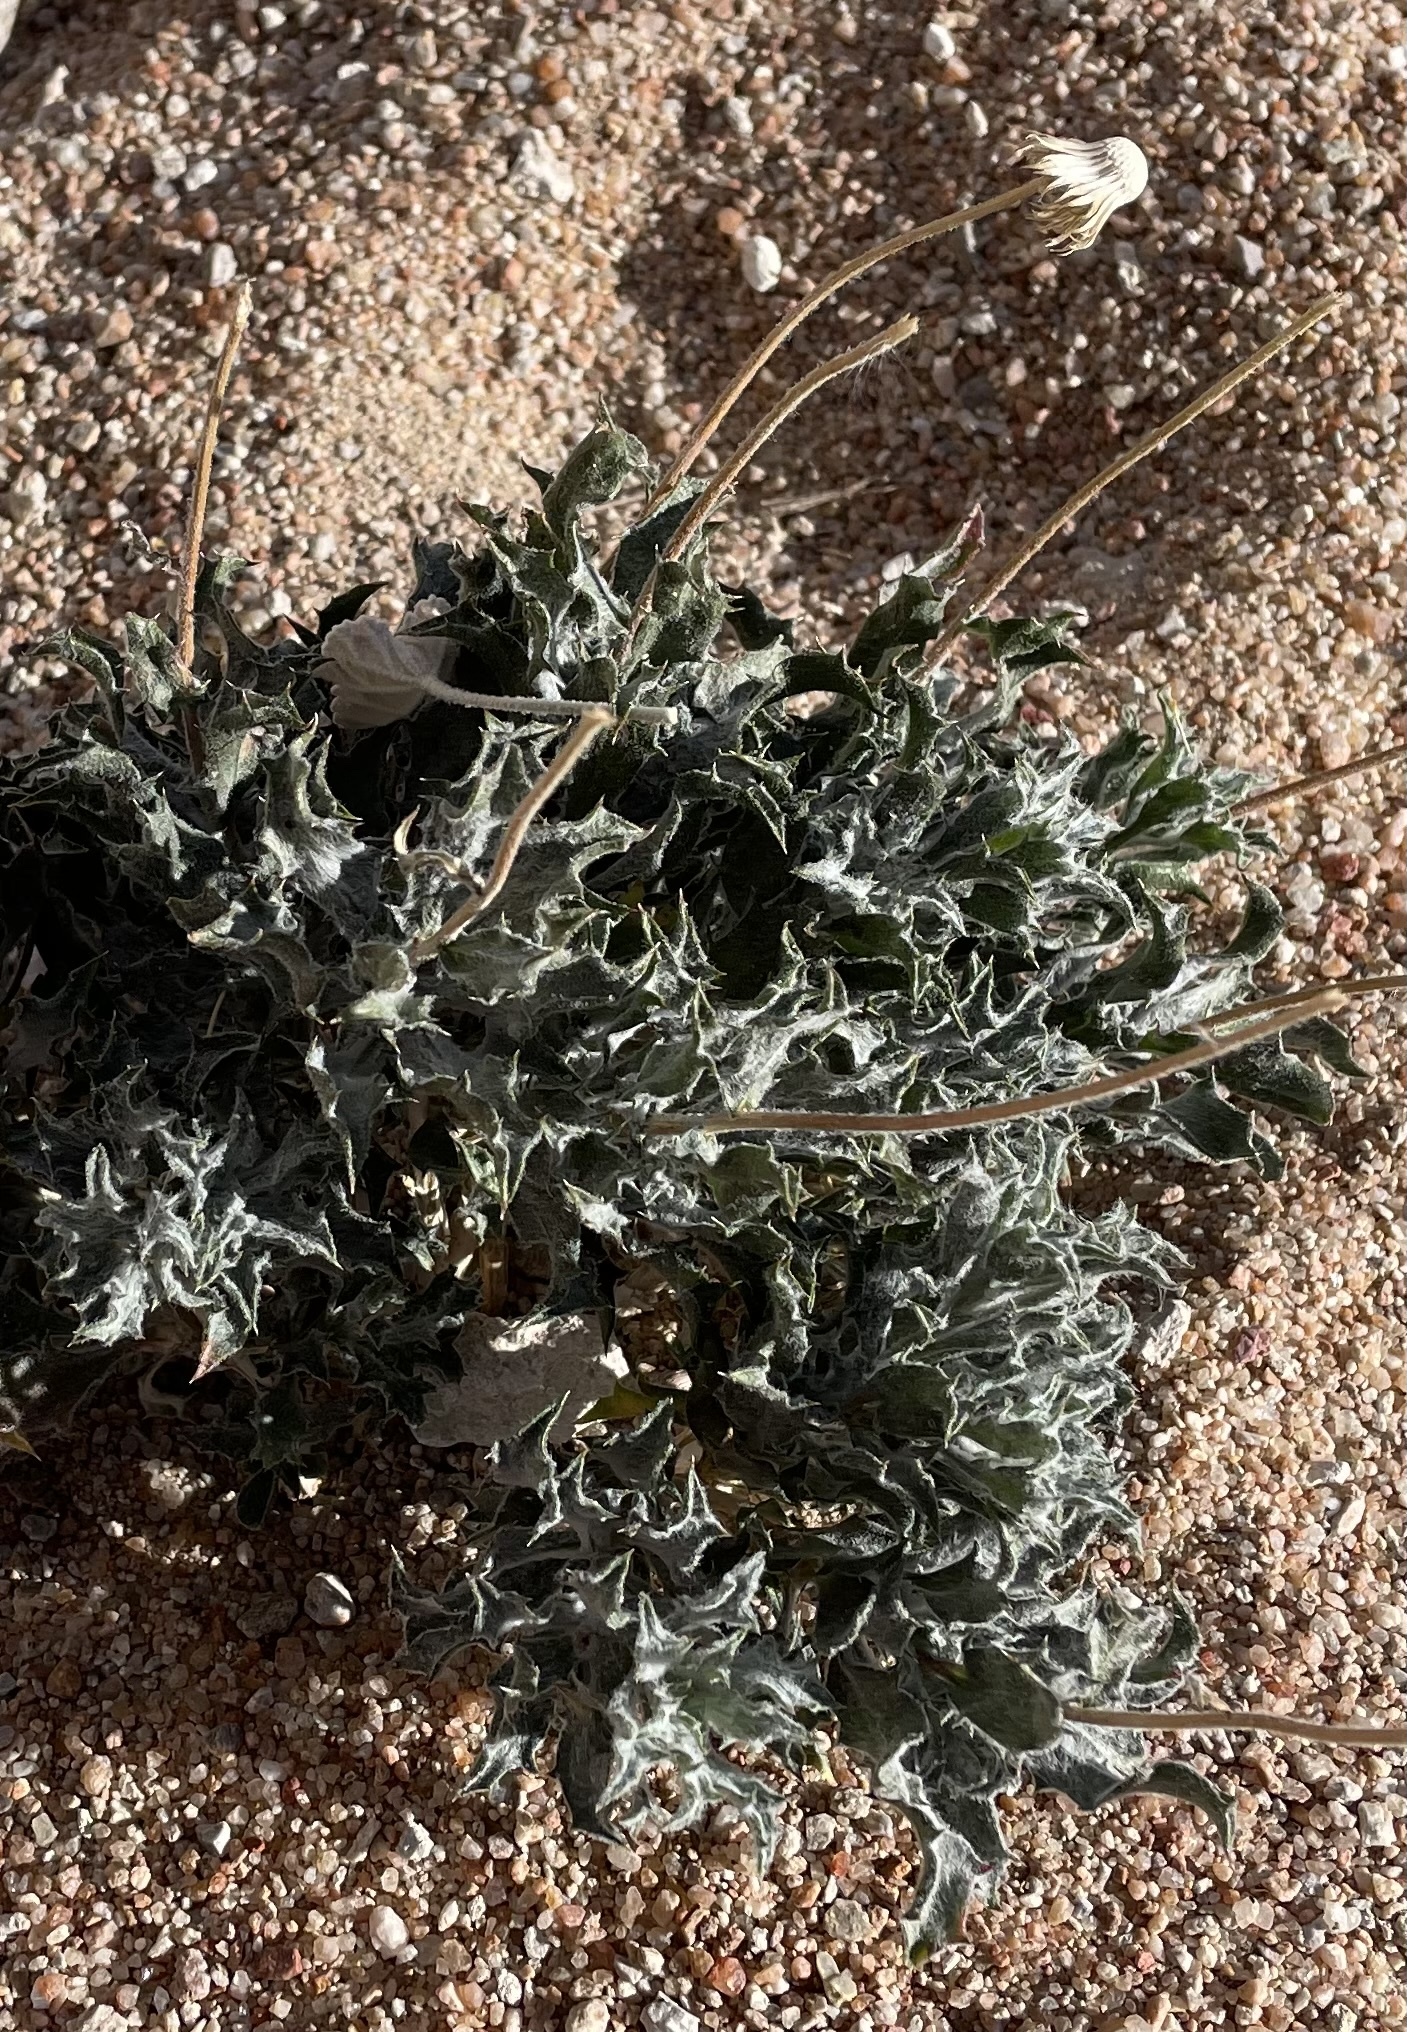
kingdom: Plantae
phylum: Tracheophyta
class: Magnoliopsida
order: Asterales
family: Asteraceae
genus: Xylorhiza
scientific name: Xylorhiza tortifolia
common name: Hurt-leaf woody-aster
